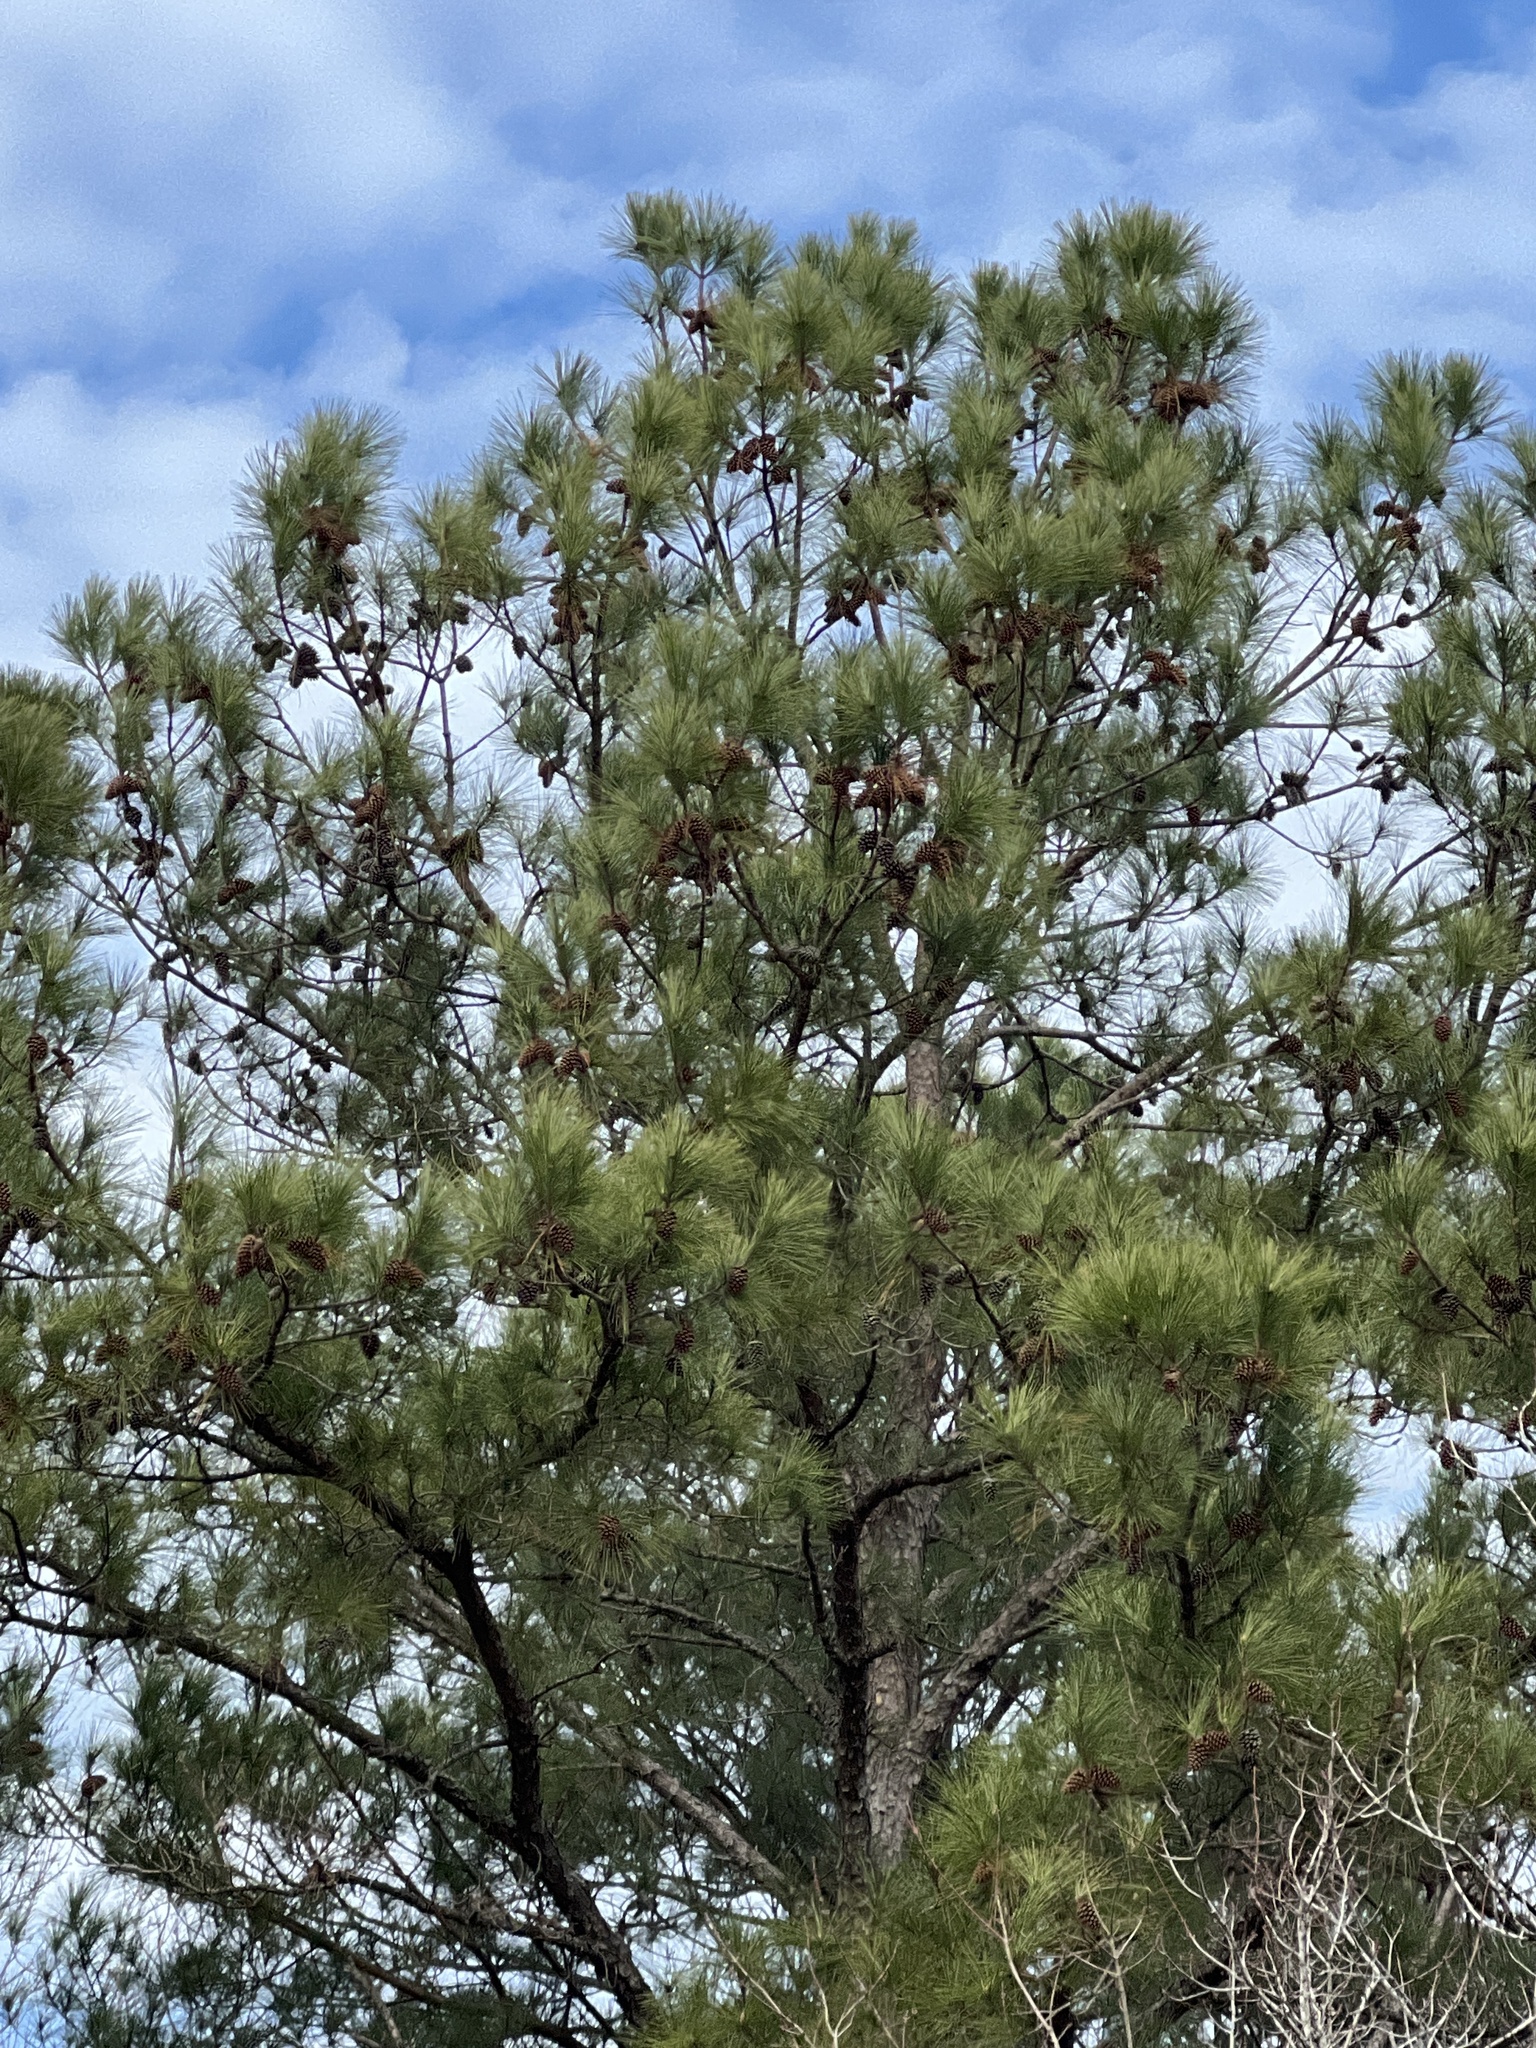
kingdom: Plantae
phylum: Tracheophyta
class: Pinopsida
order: Pinales
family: Pinaceae
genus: Pinus
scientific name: Pinus taeda
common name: Loblolly pine
